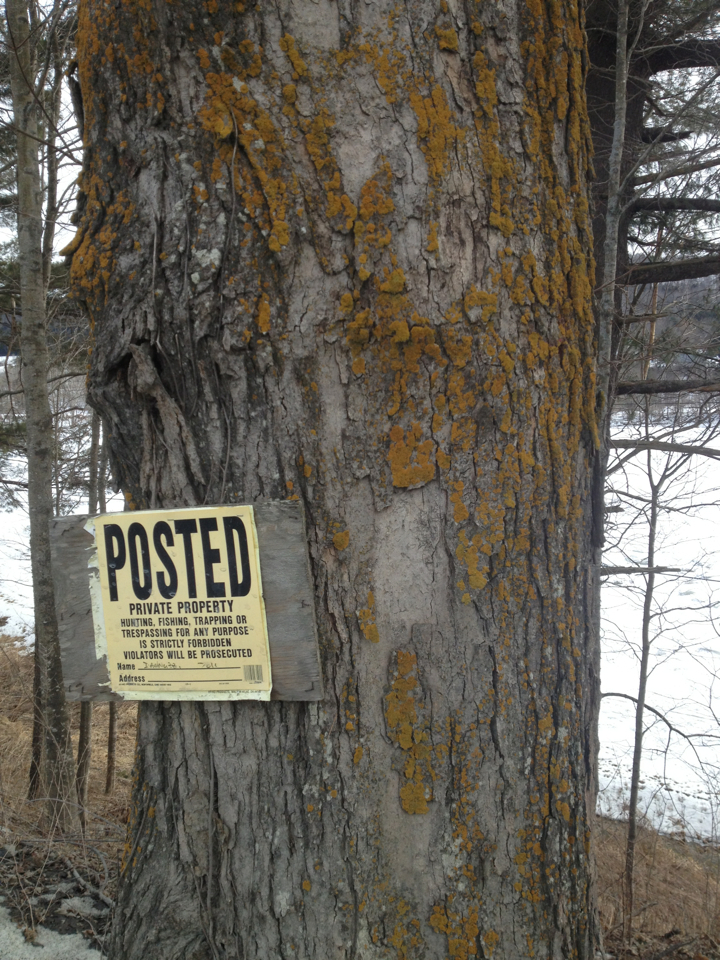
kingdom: Plantae
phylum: Tracheophyta
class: Magnoliopsida
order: Sapindales
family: Sapindaceae
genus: Acer
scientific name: Acer saccharum
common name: Sugar maple
